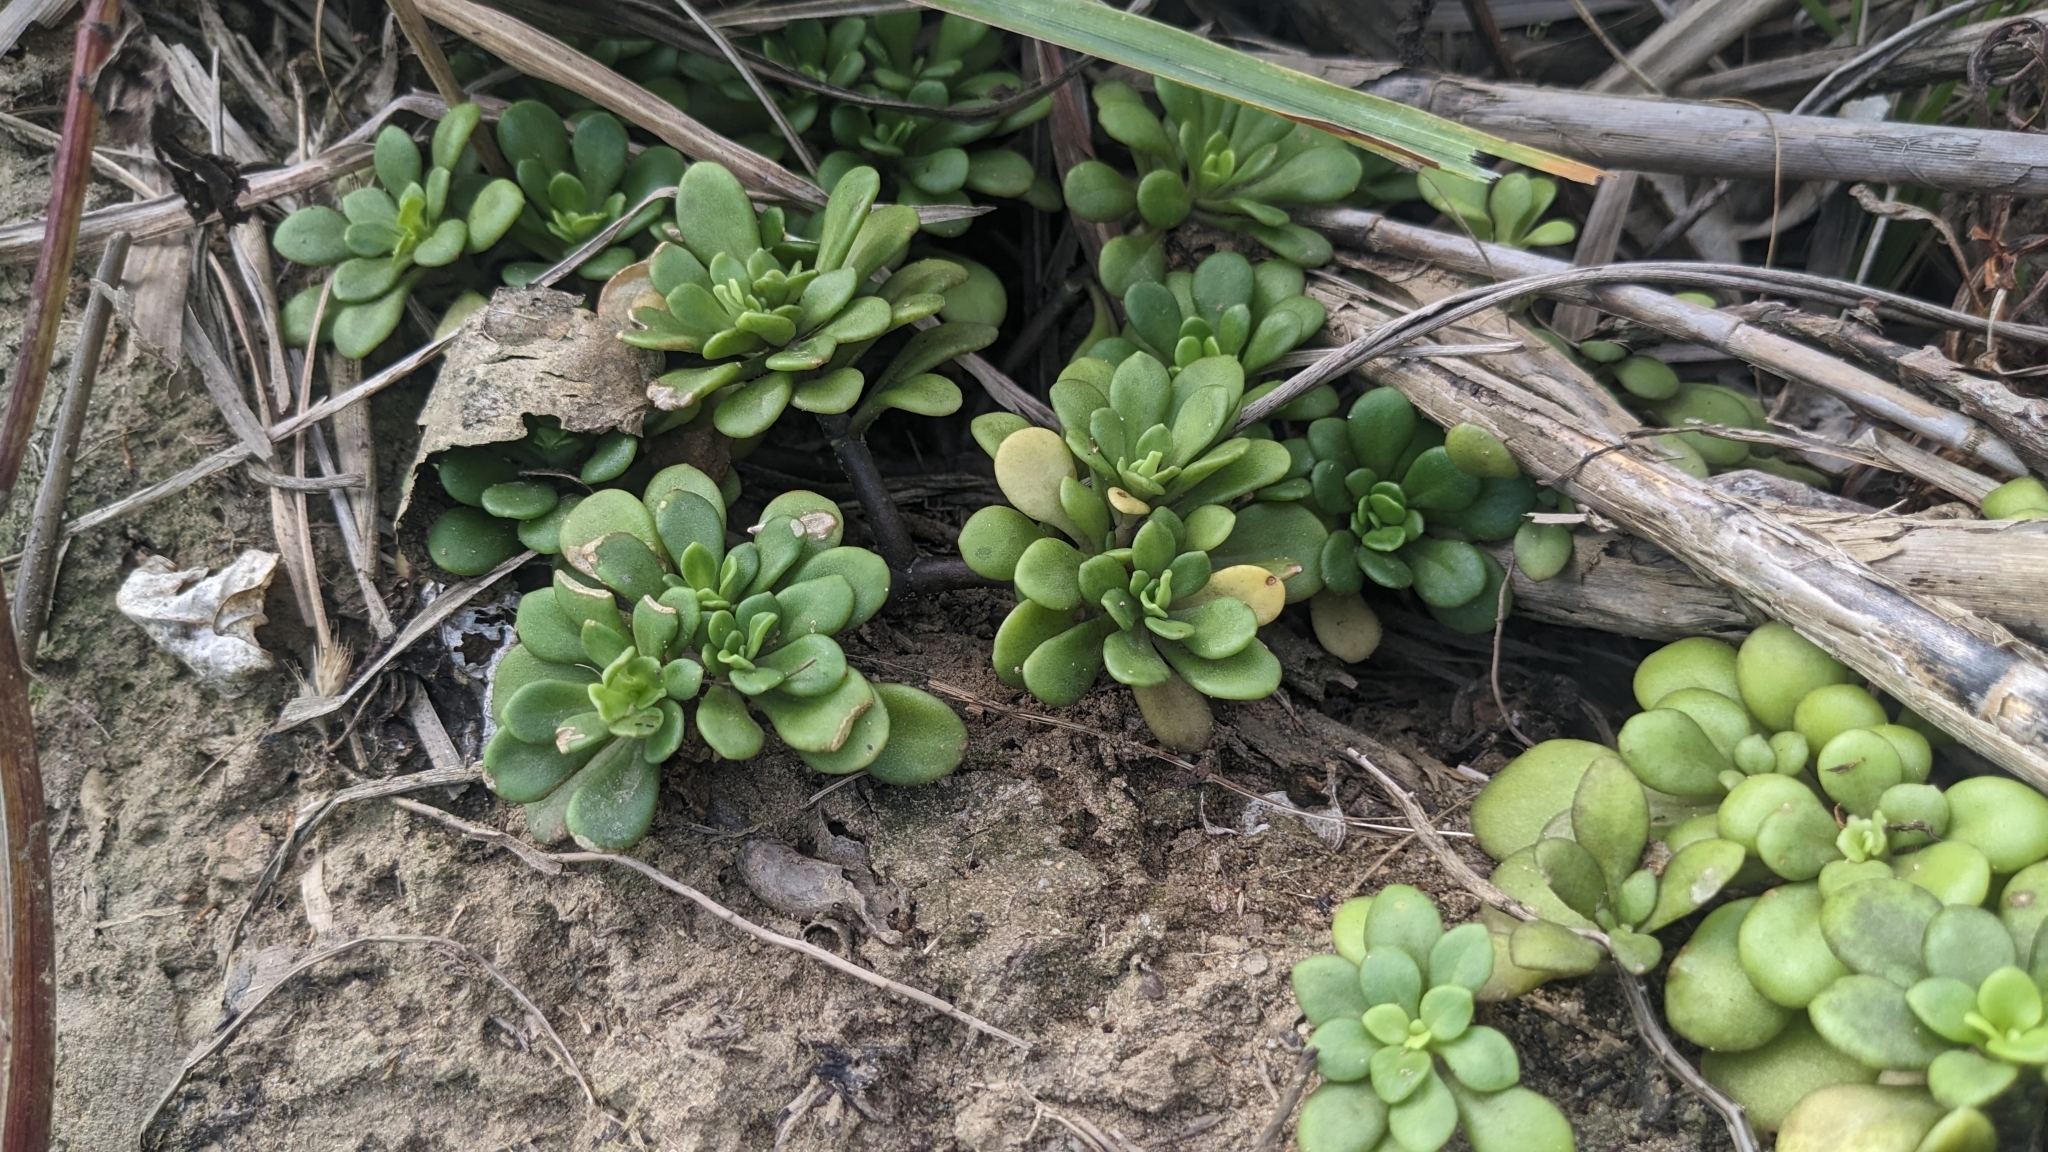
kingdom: Plantae
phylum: Tracheophyta
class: Magnoliopsida
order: Saxifragales
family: Crassulaceae
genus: Sedum
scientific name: Sedum formosanum
